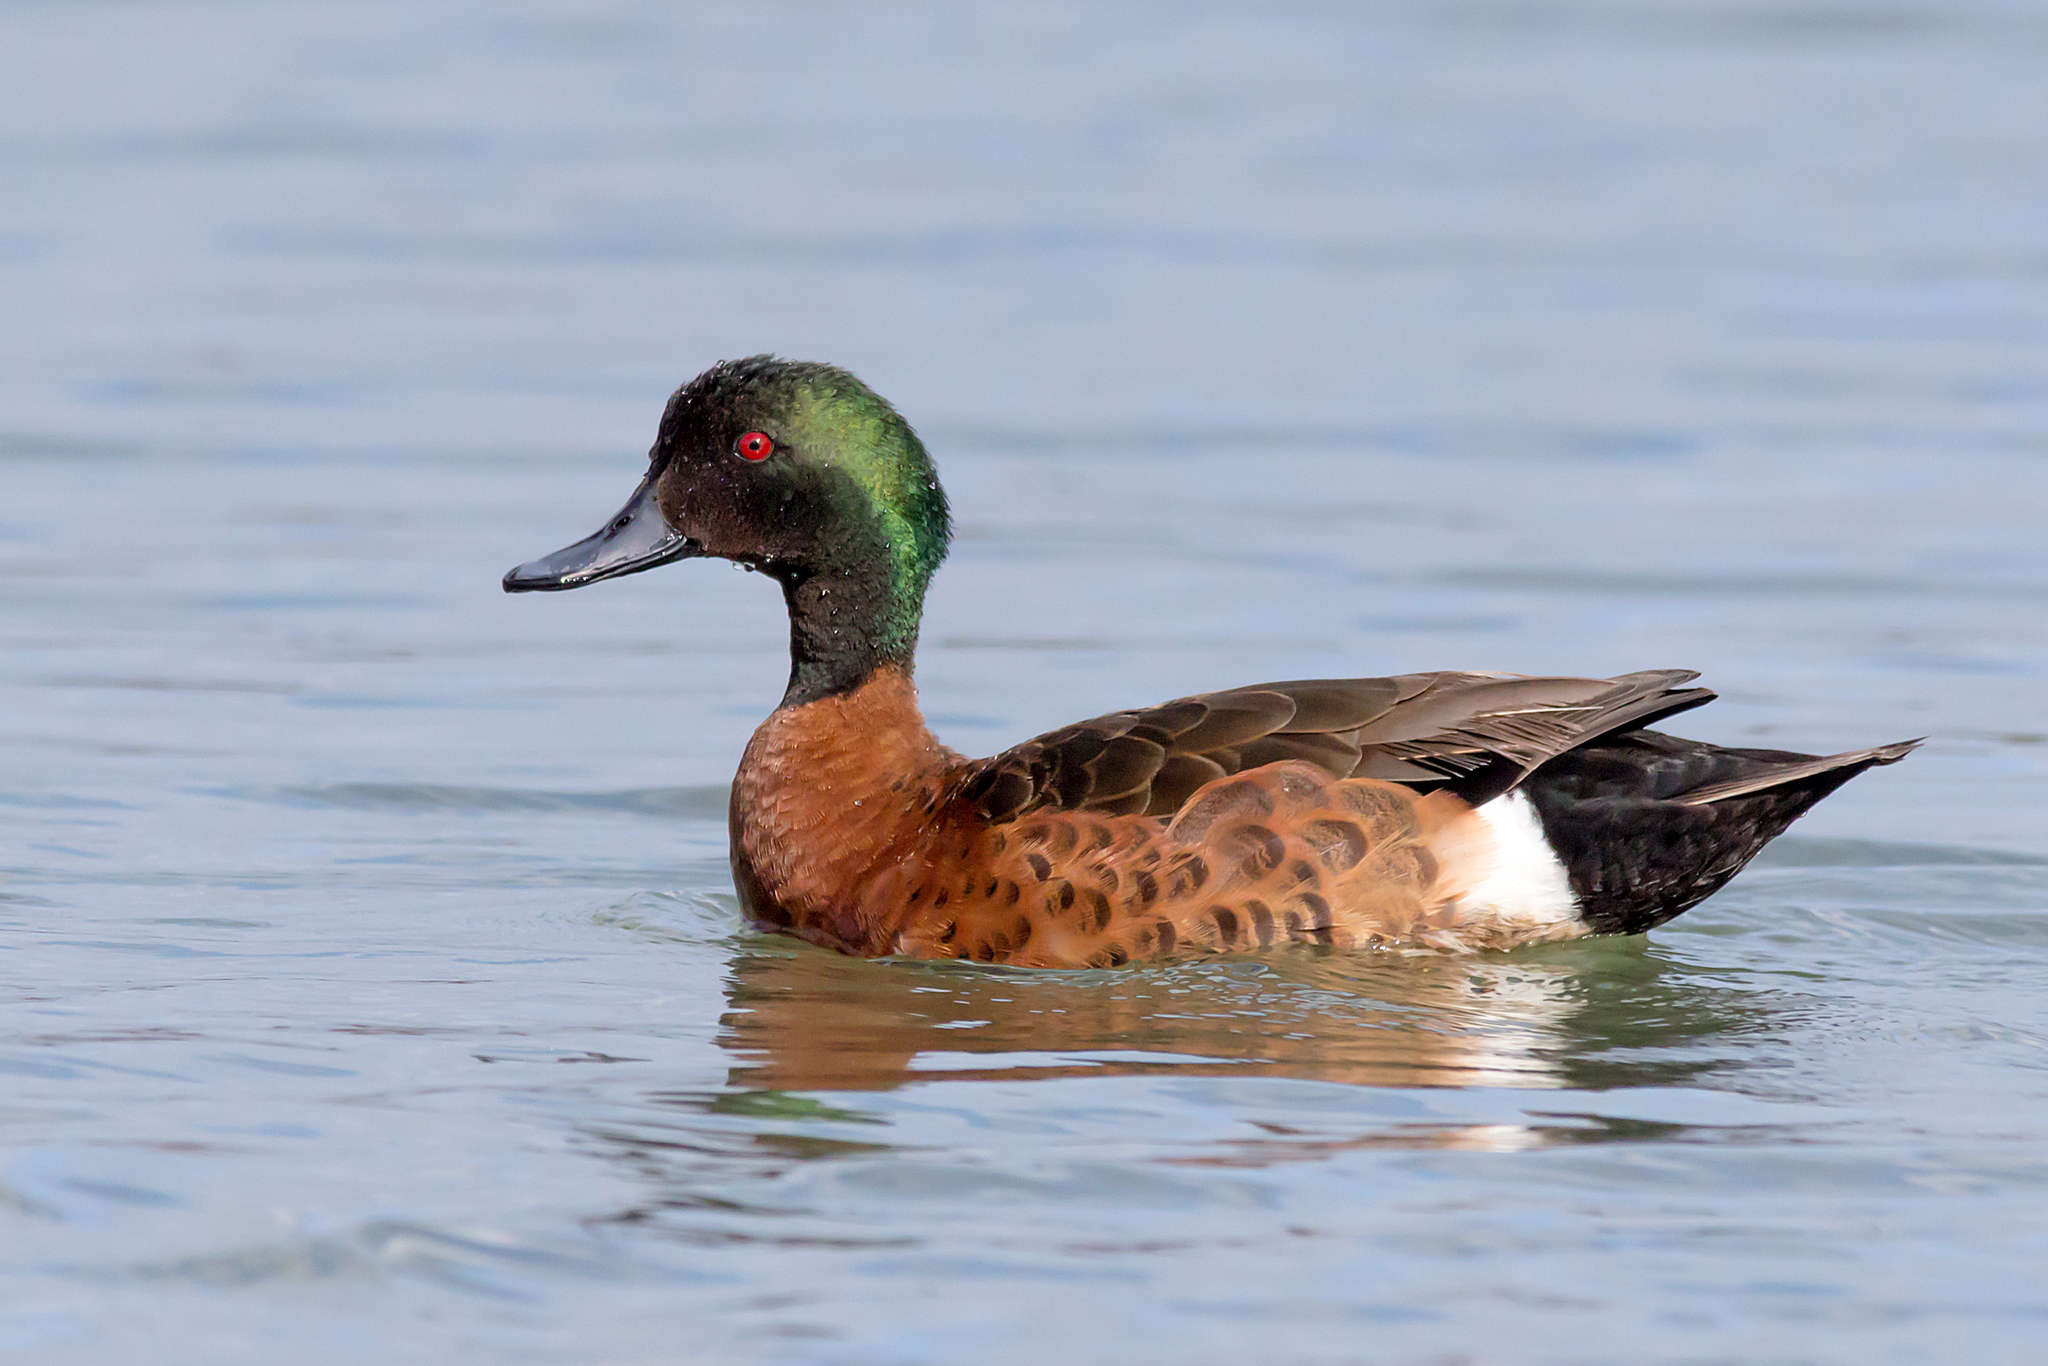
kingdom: Animalia
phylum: Chordata
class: Aves
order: Anseriformes
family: Anatidae
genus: Anas
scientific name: Anas castanea
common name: Chestnut teal
